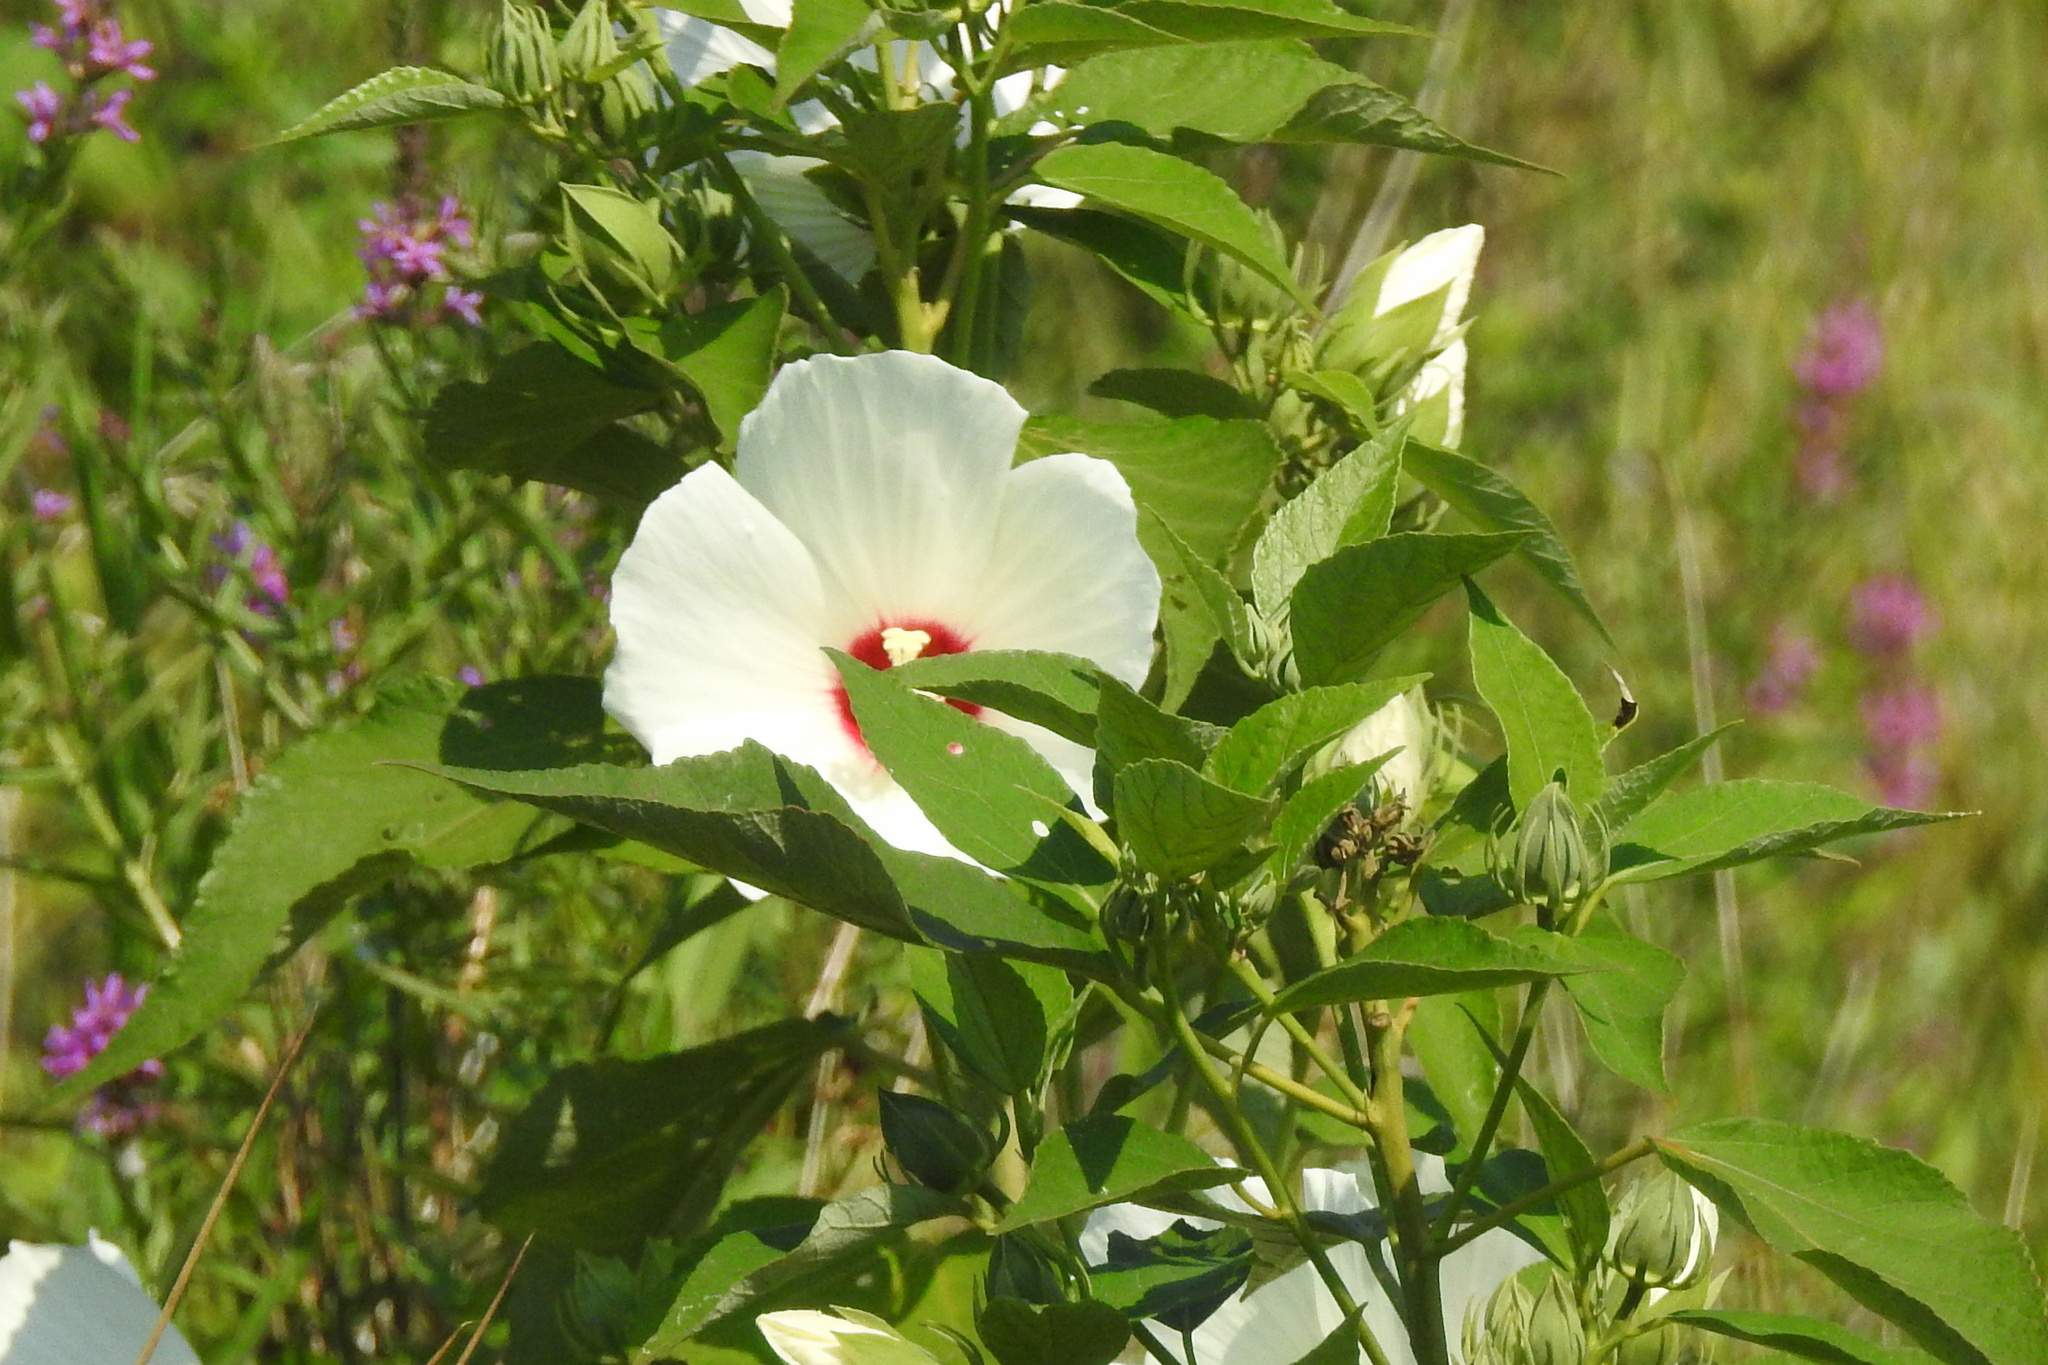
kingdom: Plantae
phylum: Tracheophyta
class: Magnoliopsida
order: Malvales
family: Malvaceae
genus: Hibiscus
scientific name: Hibiscus moscheutos
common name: Common rose-mallow
